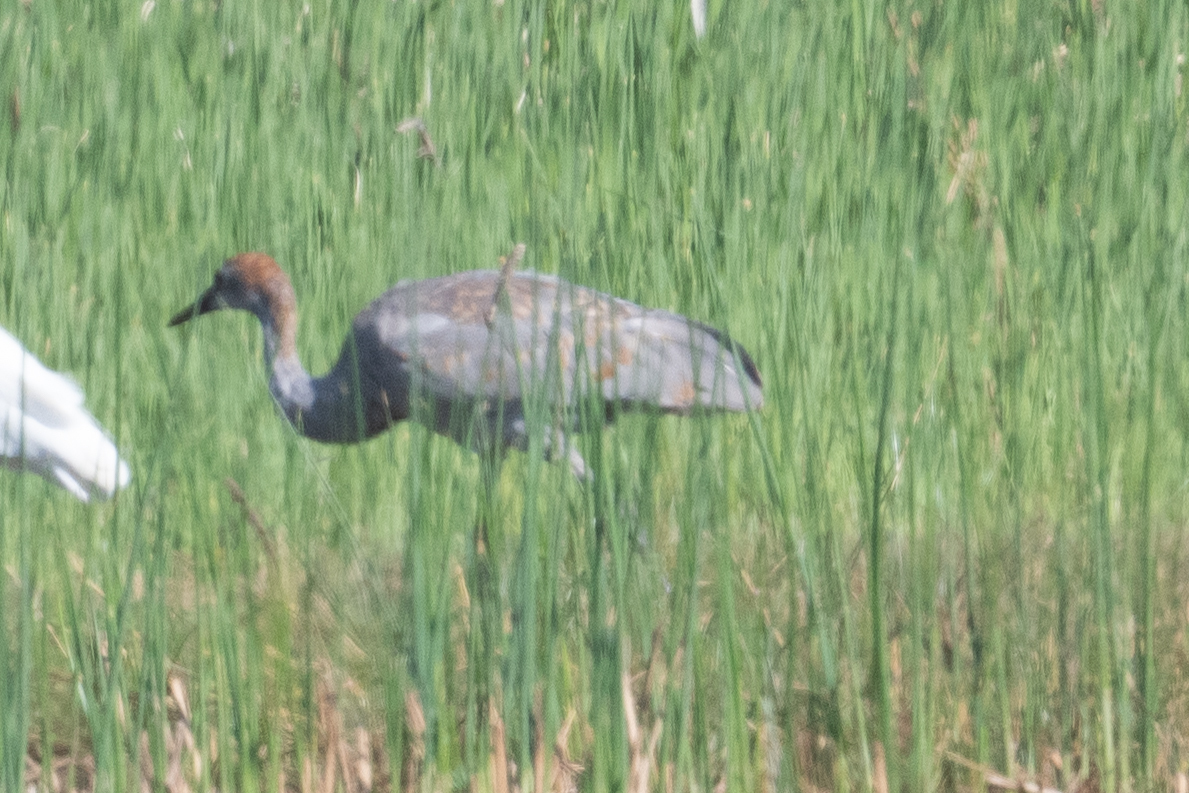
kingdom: Animalia
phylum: Chordata
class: Aves
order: Gruiformes
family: Gruidae
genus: Grus
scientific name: Grus canadensis
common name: Sandhill crane
